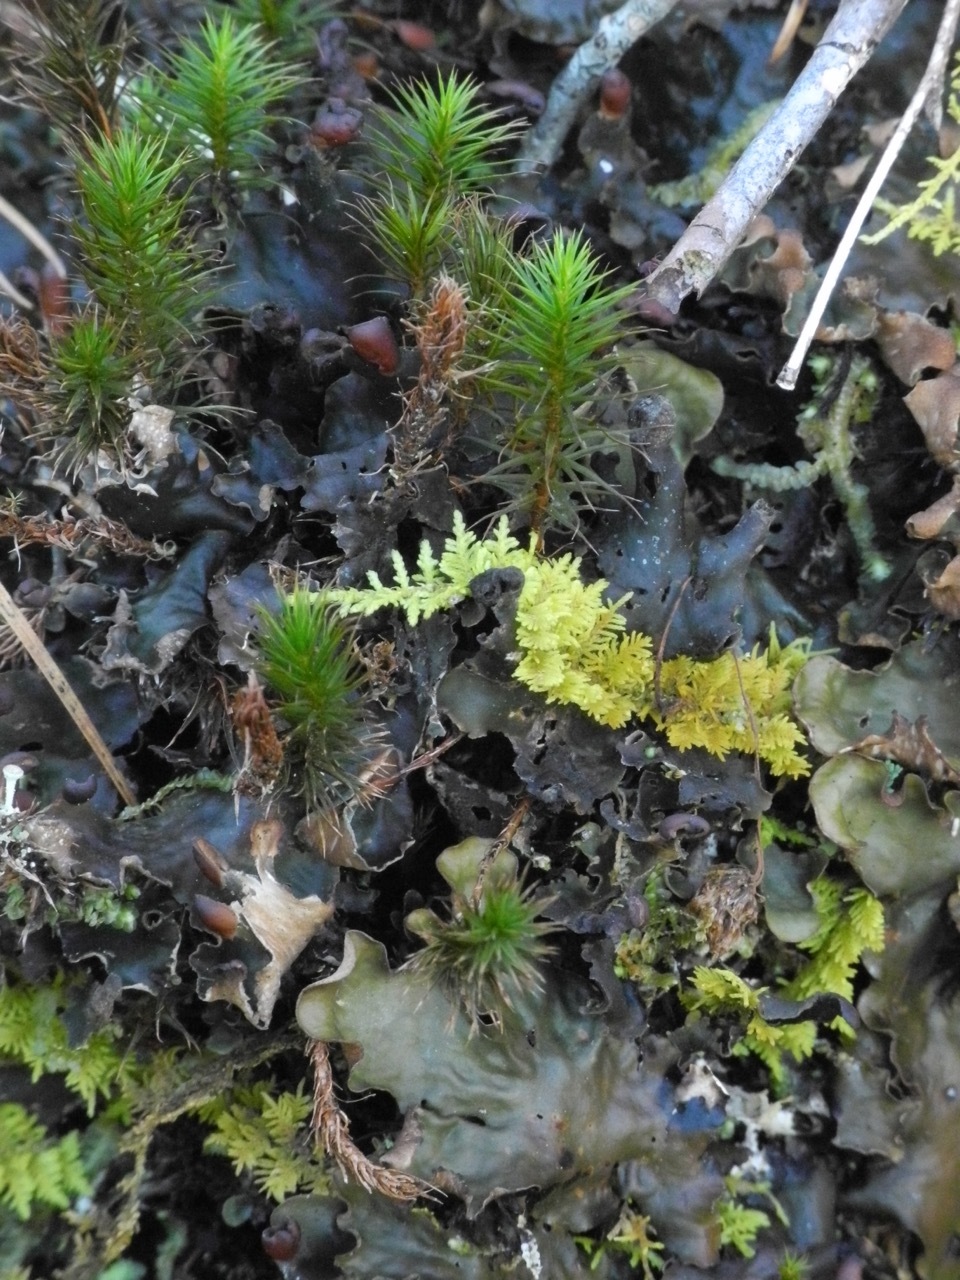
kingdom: Plantae
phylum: Bryophyta
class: Polytrichopsida
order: Polytrichales
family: Polytrichaceae
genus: Polytrichum
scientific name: Polytrichum commune
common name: Common haircap
